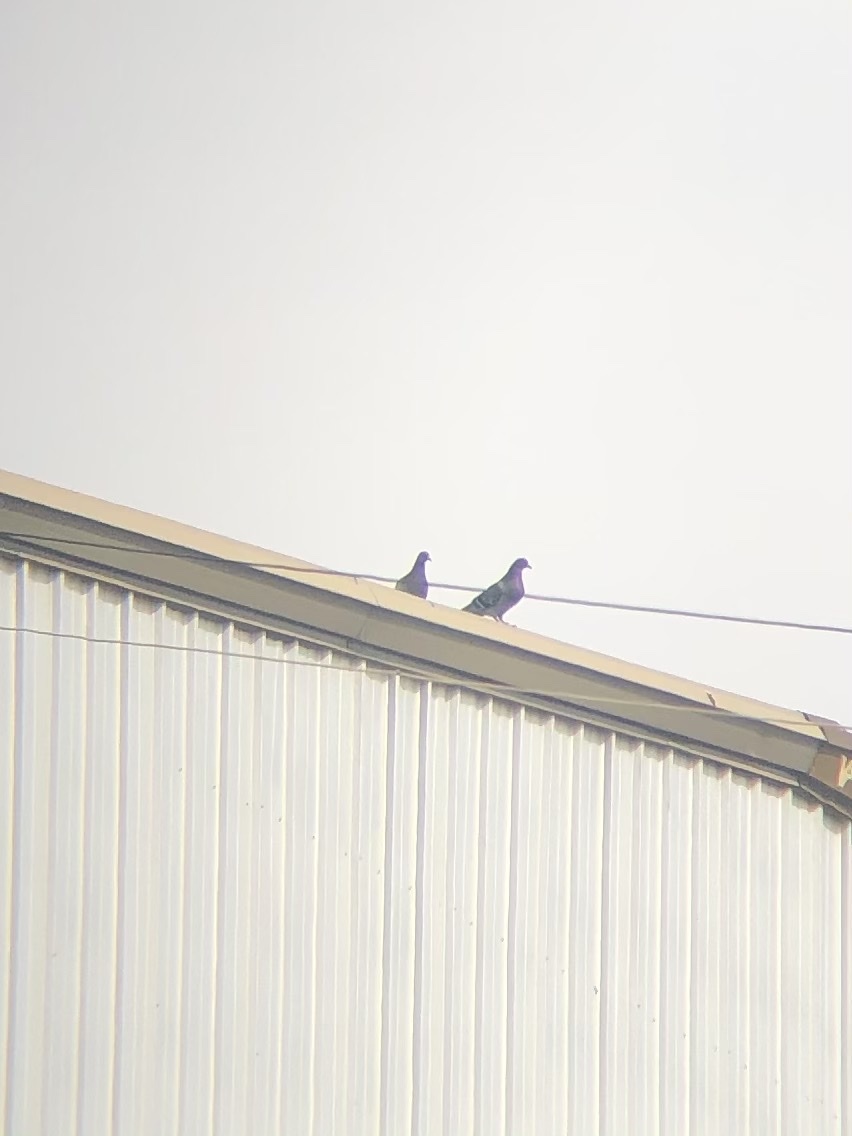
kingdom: Animalia
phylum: Chordata
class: Aves
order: Columbiformes
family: Columbidae
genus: Columba
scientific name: Columba livia
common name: Rock pigeon
